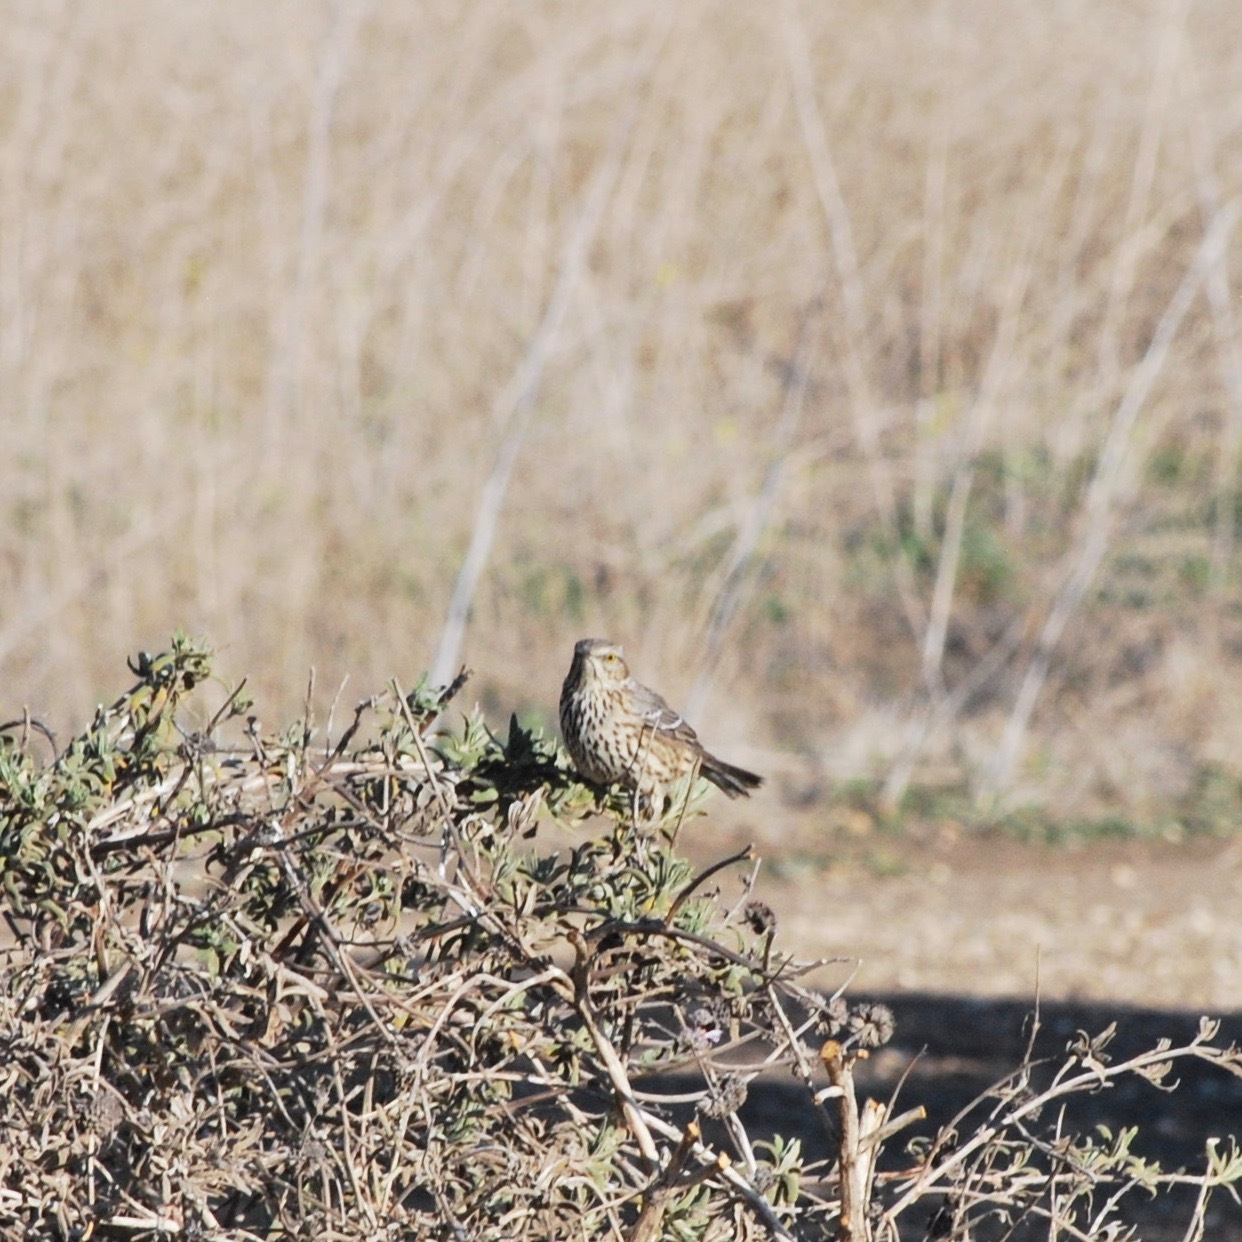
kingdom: Animalia
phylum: Chordata
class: Aves
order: Passeriformes
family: Mimidae
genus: Oreoscoptes
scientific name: Oreoscoptes montanus
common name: Sage thrasher
